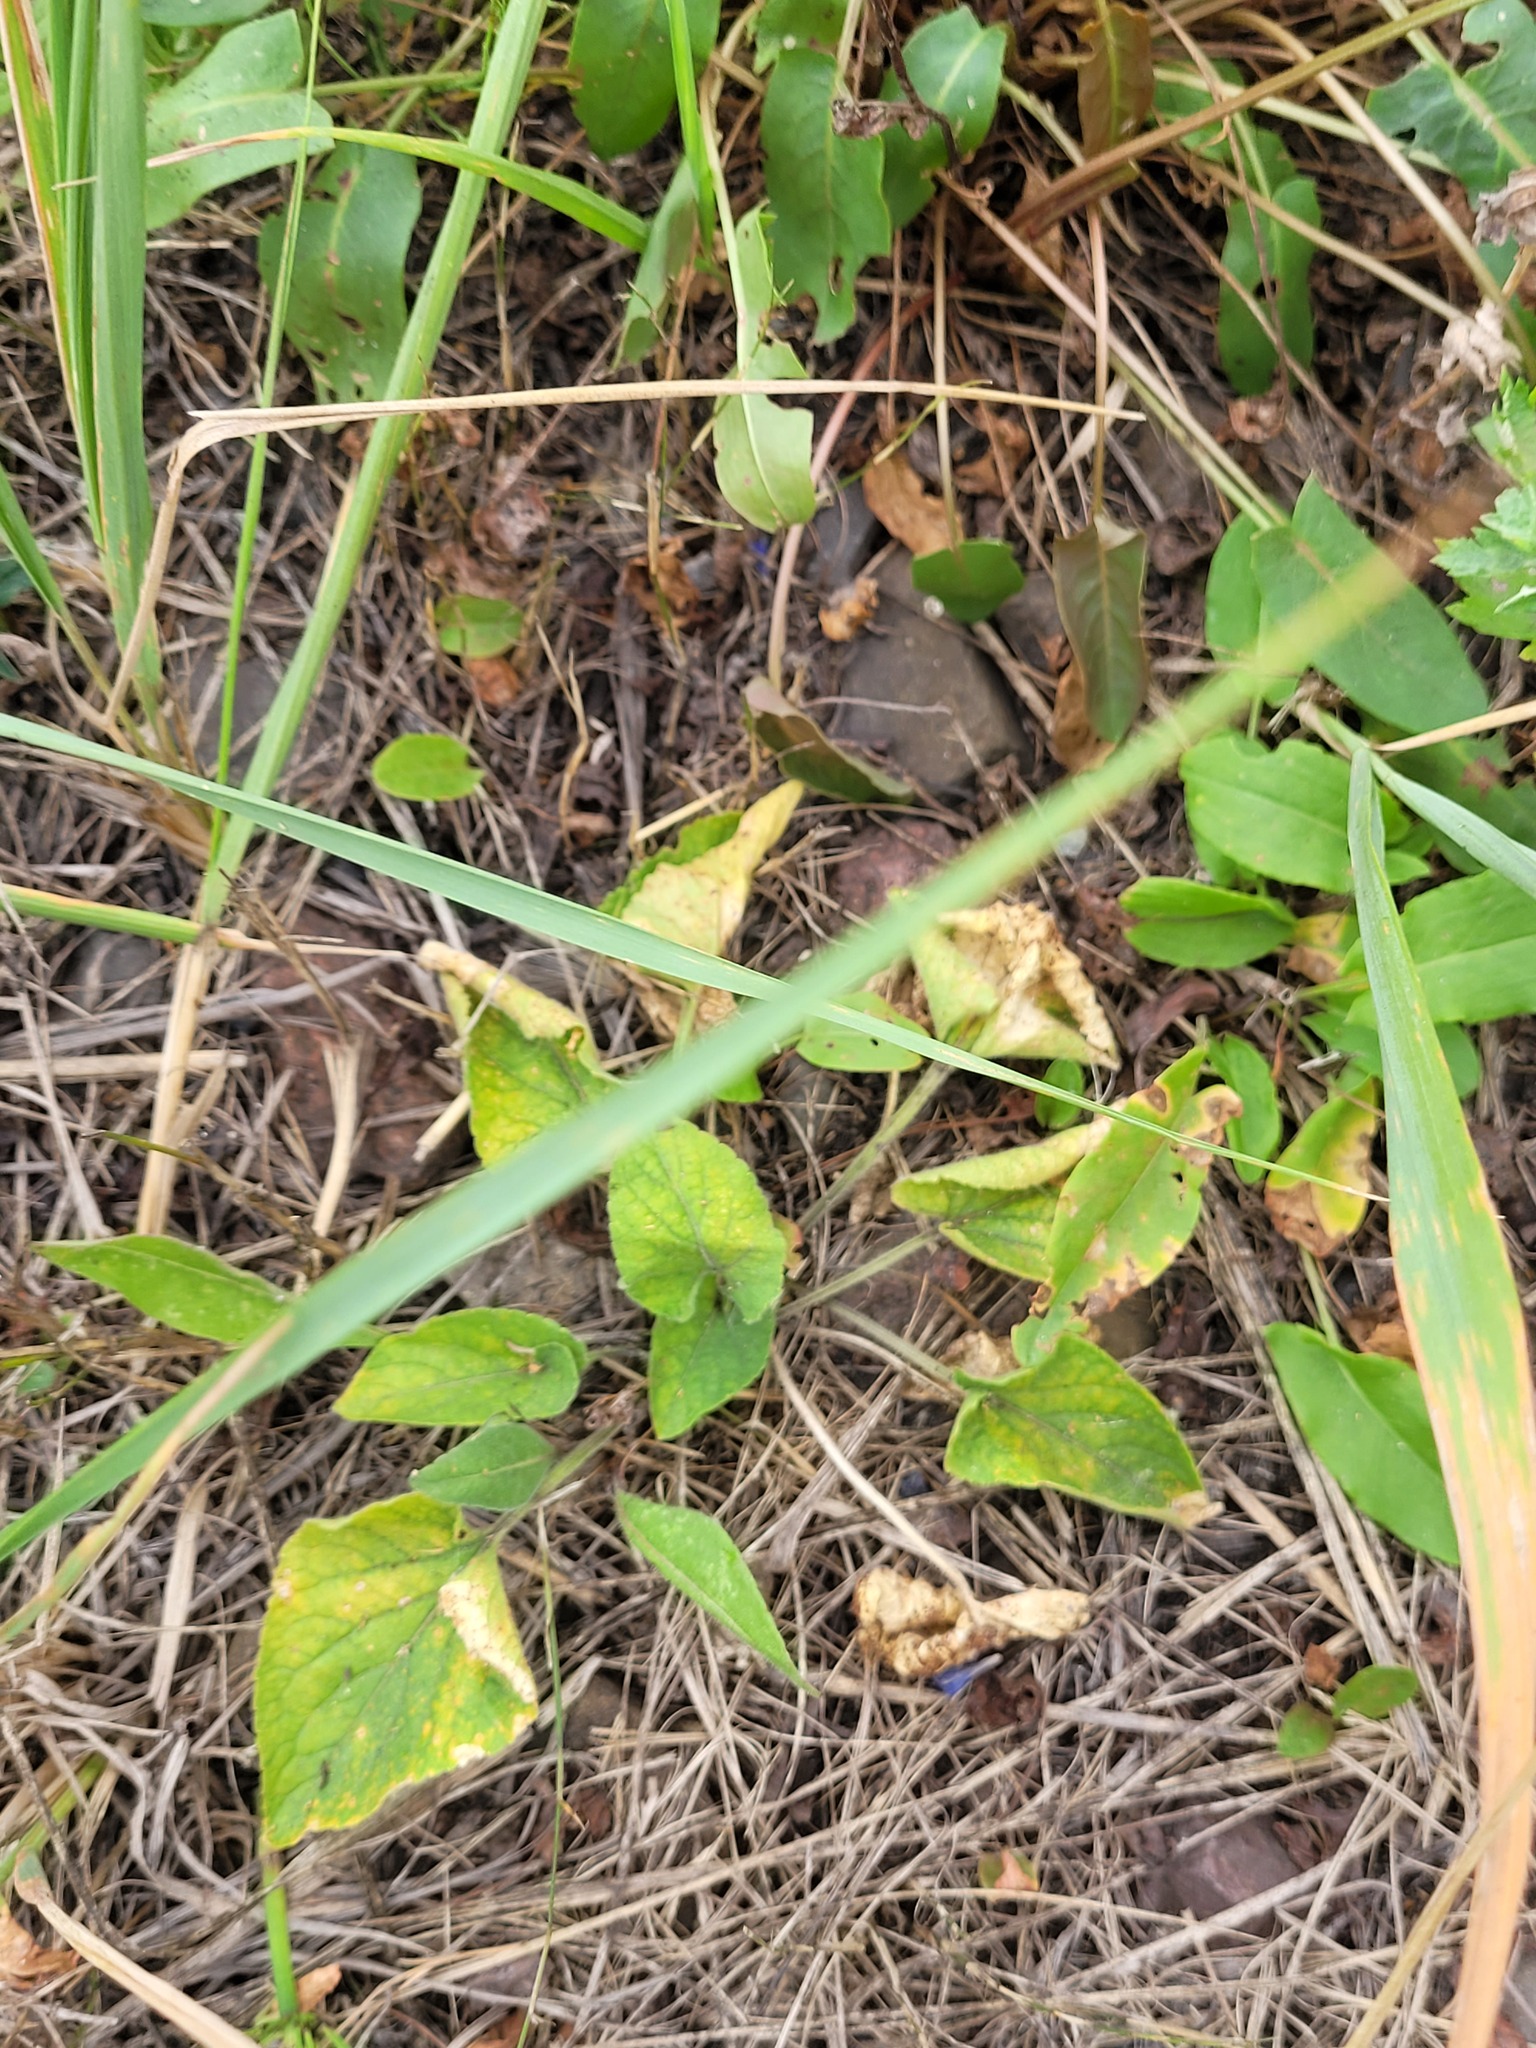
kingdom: Plantae
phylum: Tracheophyta
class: Magnoliopsida
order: Malpighiales
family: Violaceae
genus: Viola
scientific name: Viola hirta
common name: Hairy violet
